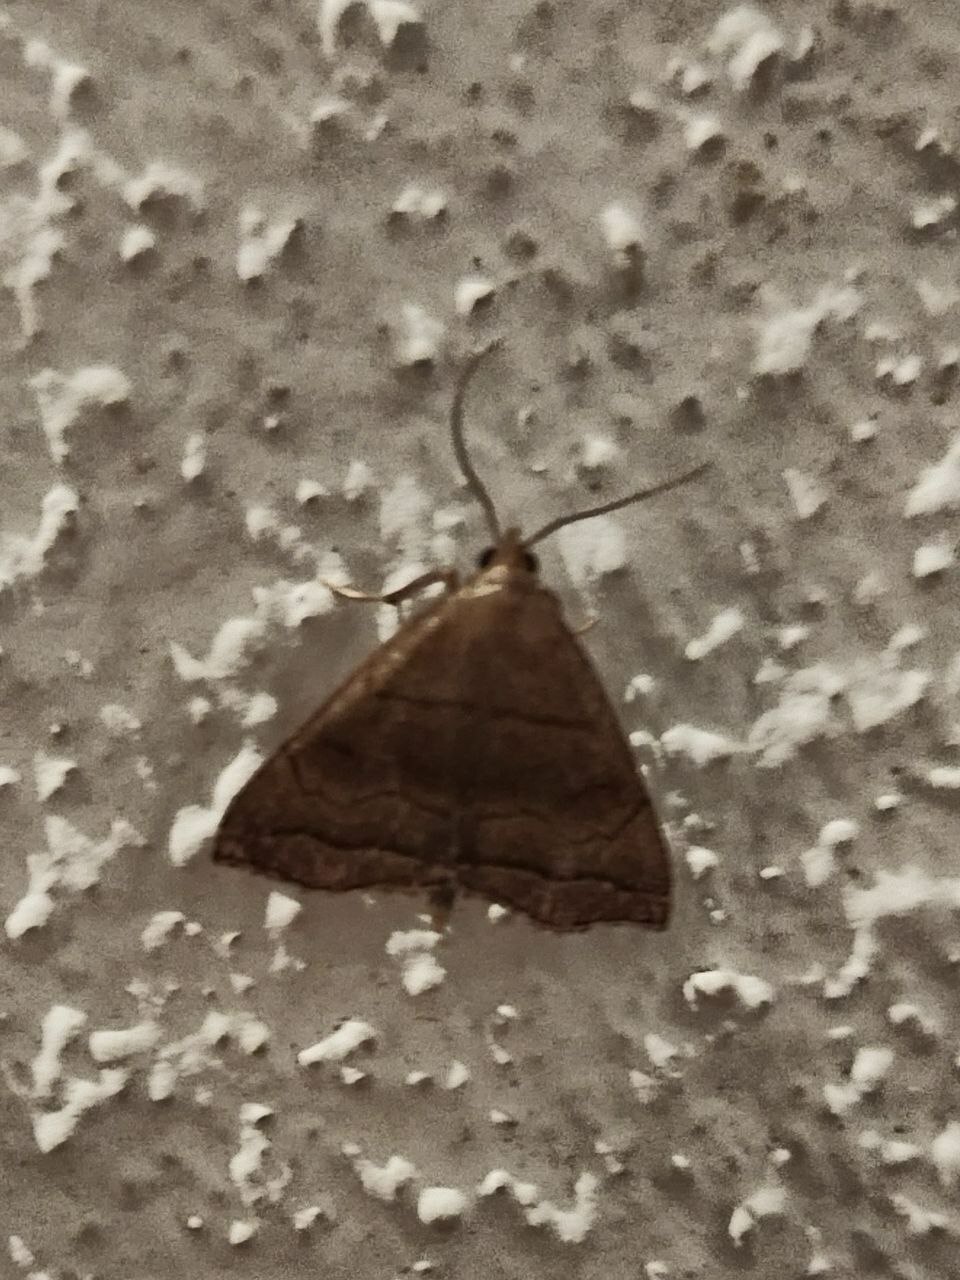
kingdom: Animalia
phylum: Arthropoda
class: Insecta
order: Lepidoptera
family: Erebidae
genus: Paracolax
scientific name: Paracolax tristalis
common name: Clay fan-foot
